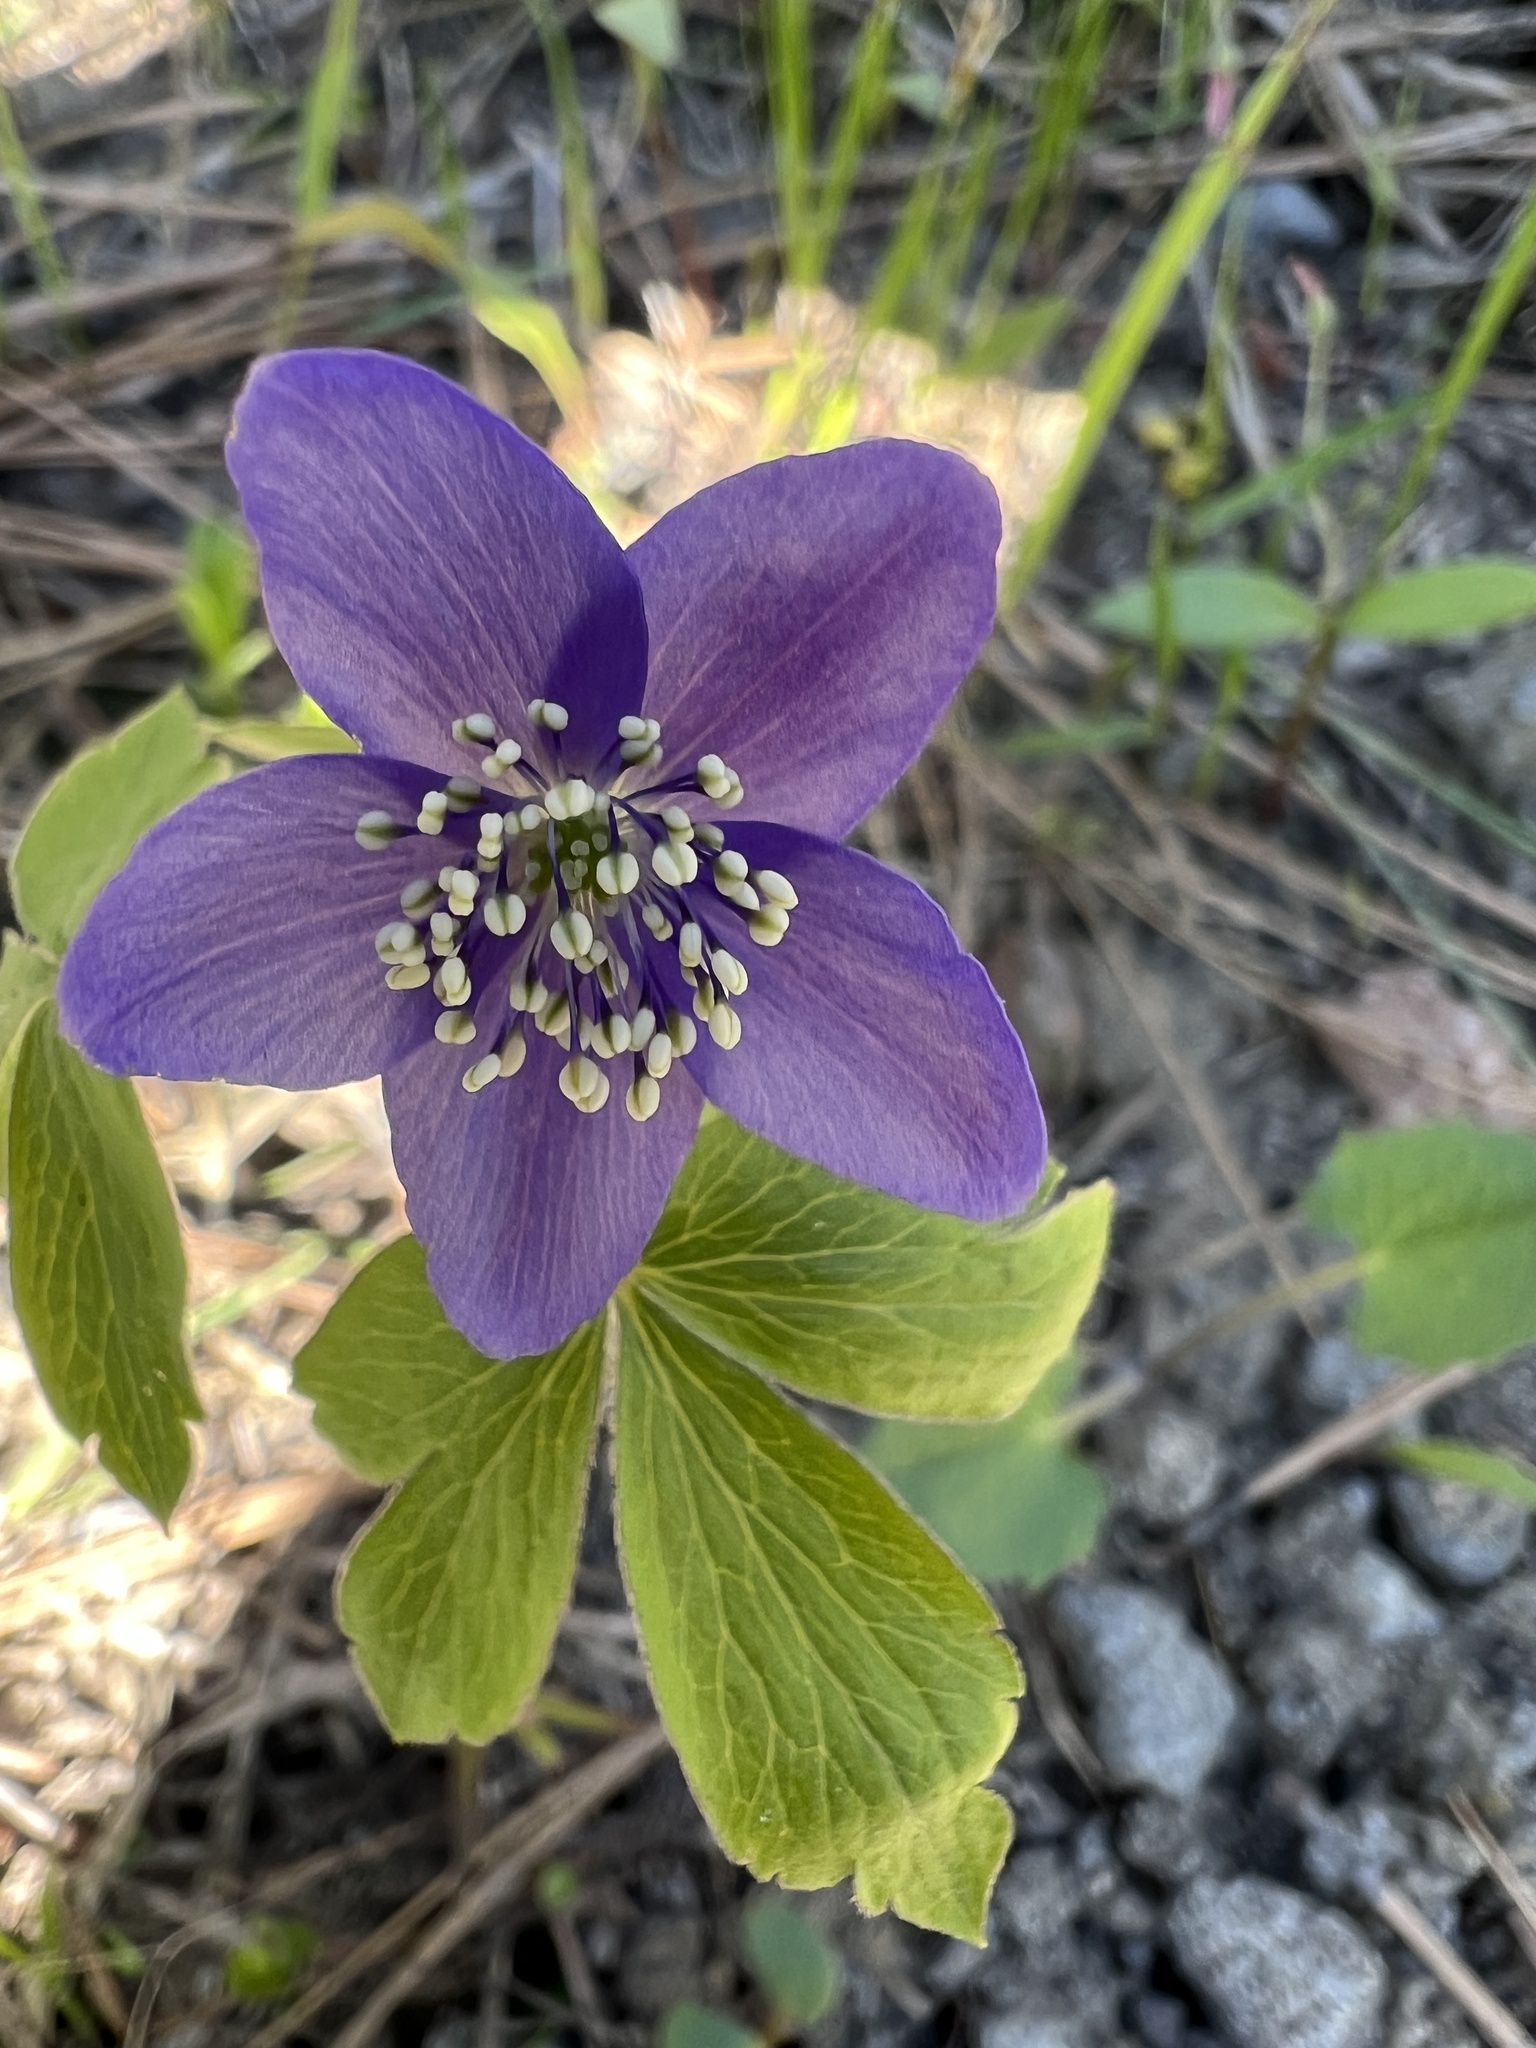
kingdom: Plantae
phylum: Tracheophyta
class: Magnoliopsida
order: Ranunculales
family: Ranunculaceae
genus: Anemone
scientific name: Anemone oregana
